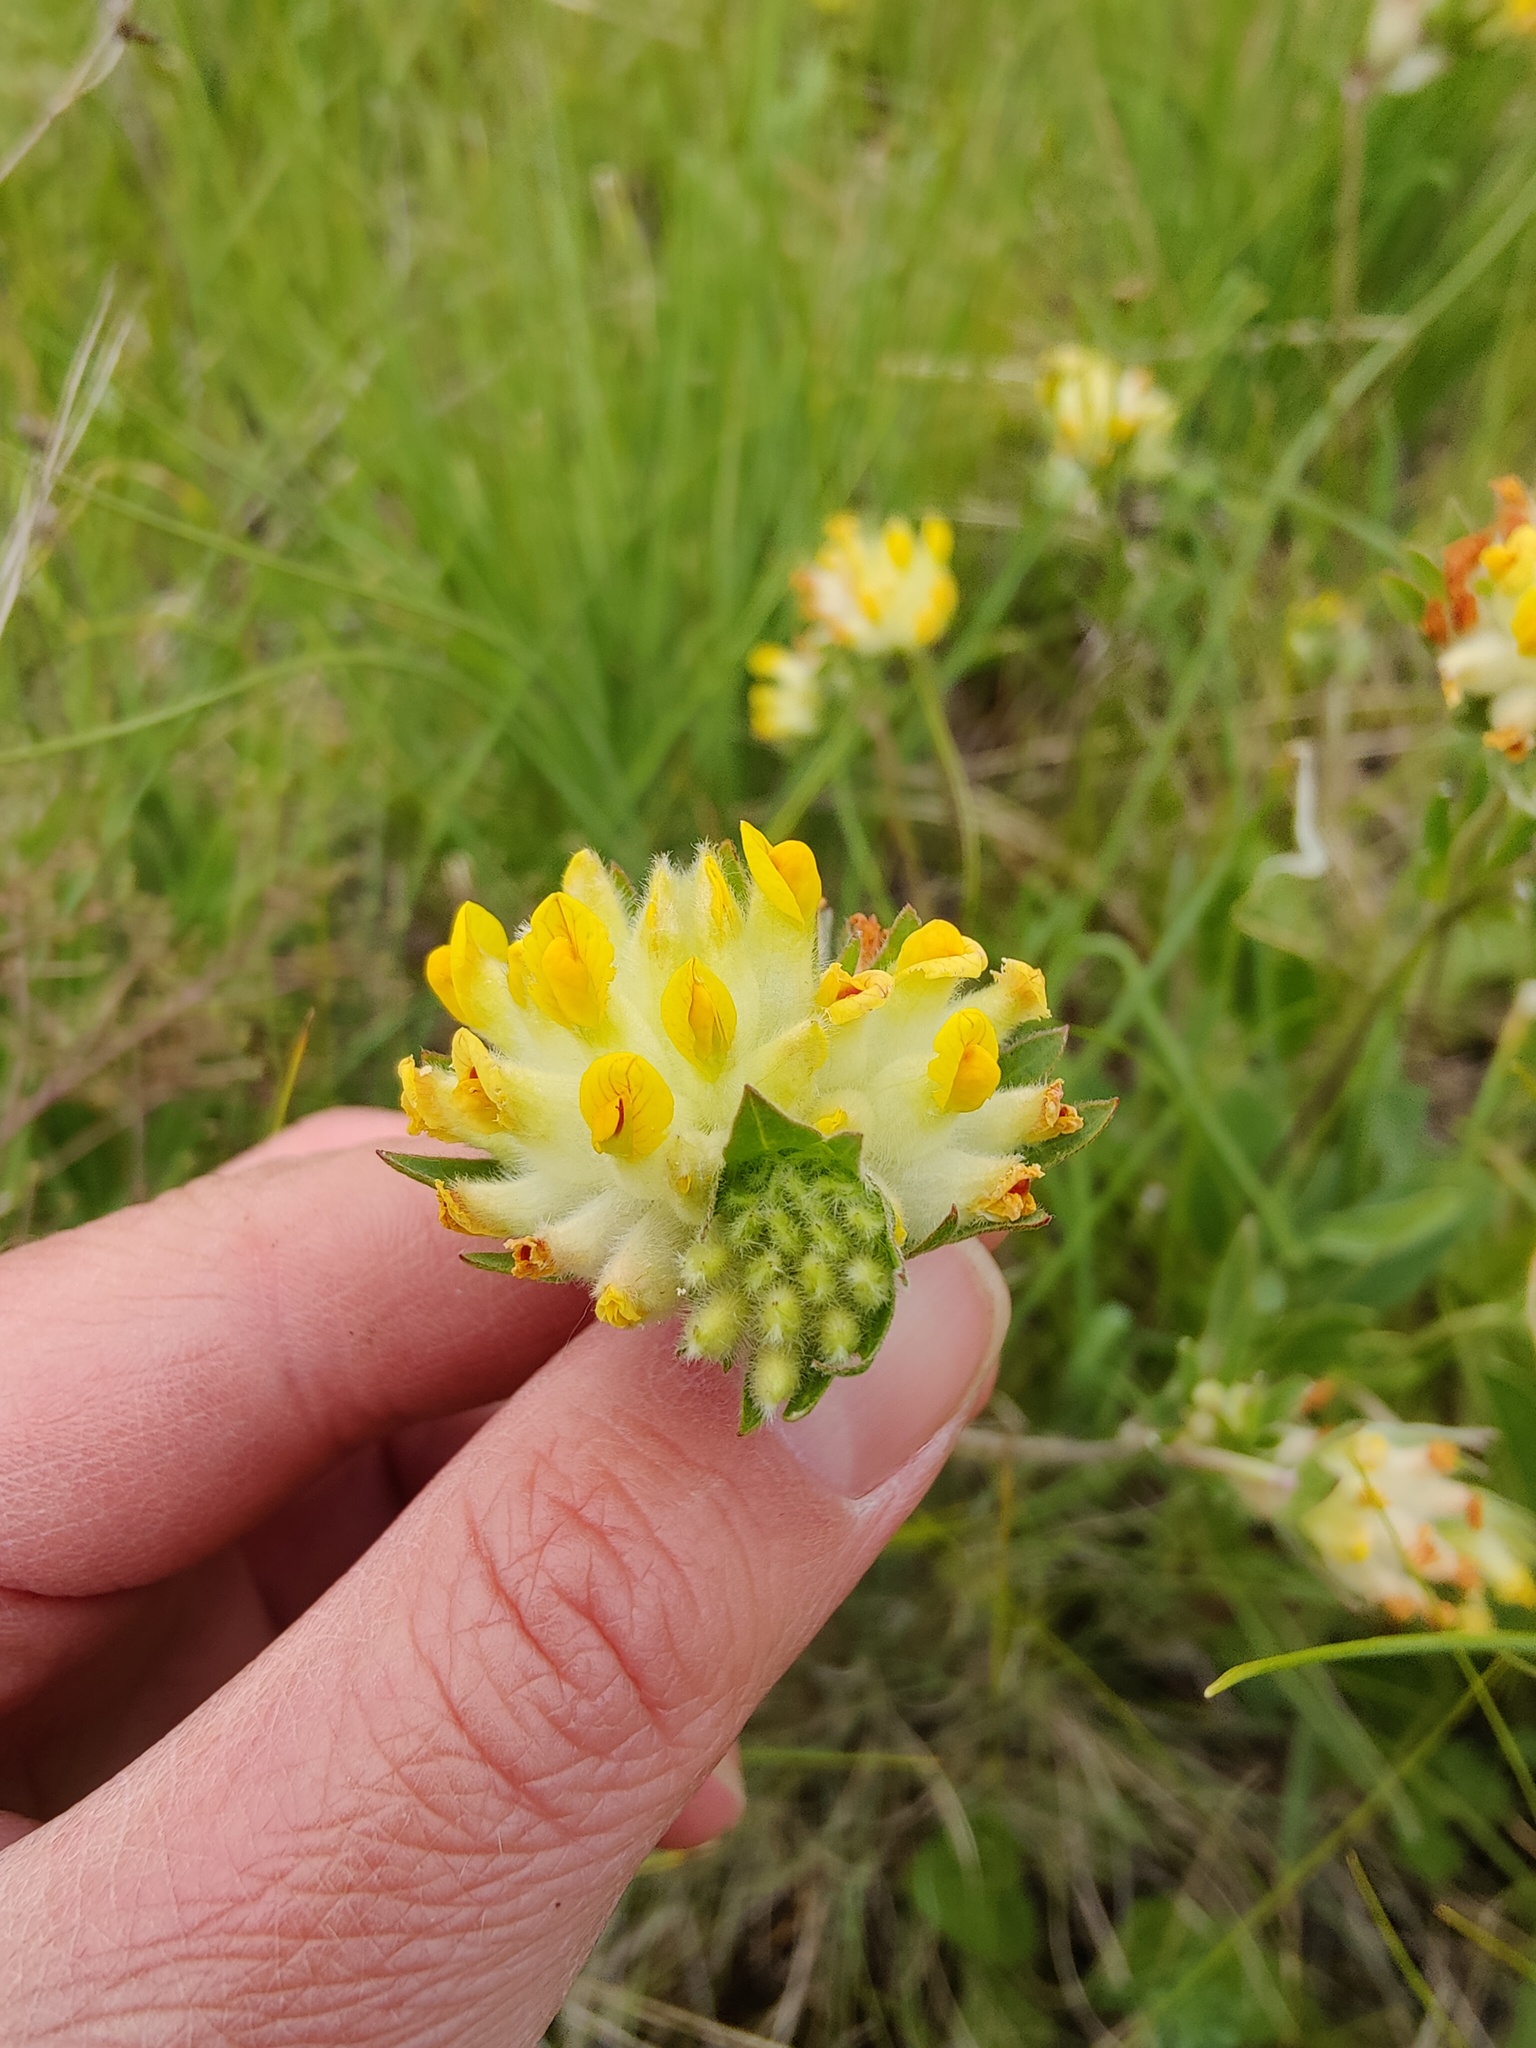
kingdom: Plantae
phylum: Tracheophyta
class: Magnoliopsida
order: Fabales
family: Fabaceae
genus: Anthyllis
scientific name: Anthyllis vulneraria
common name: Kidney vetch
